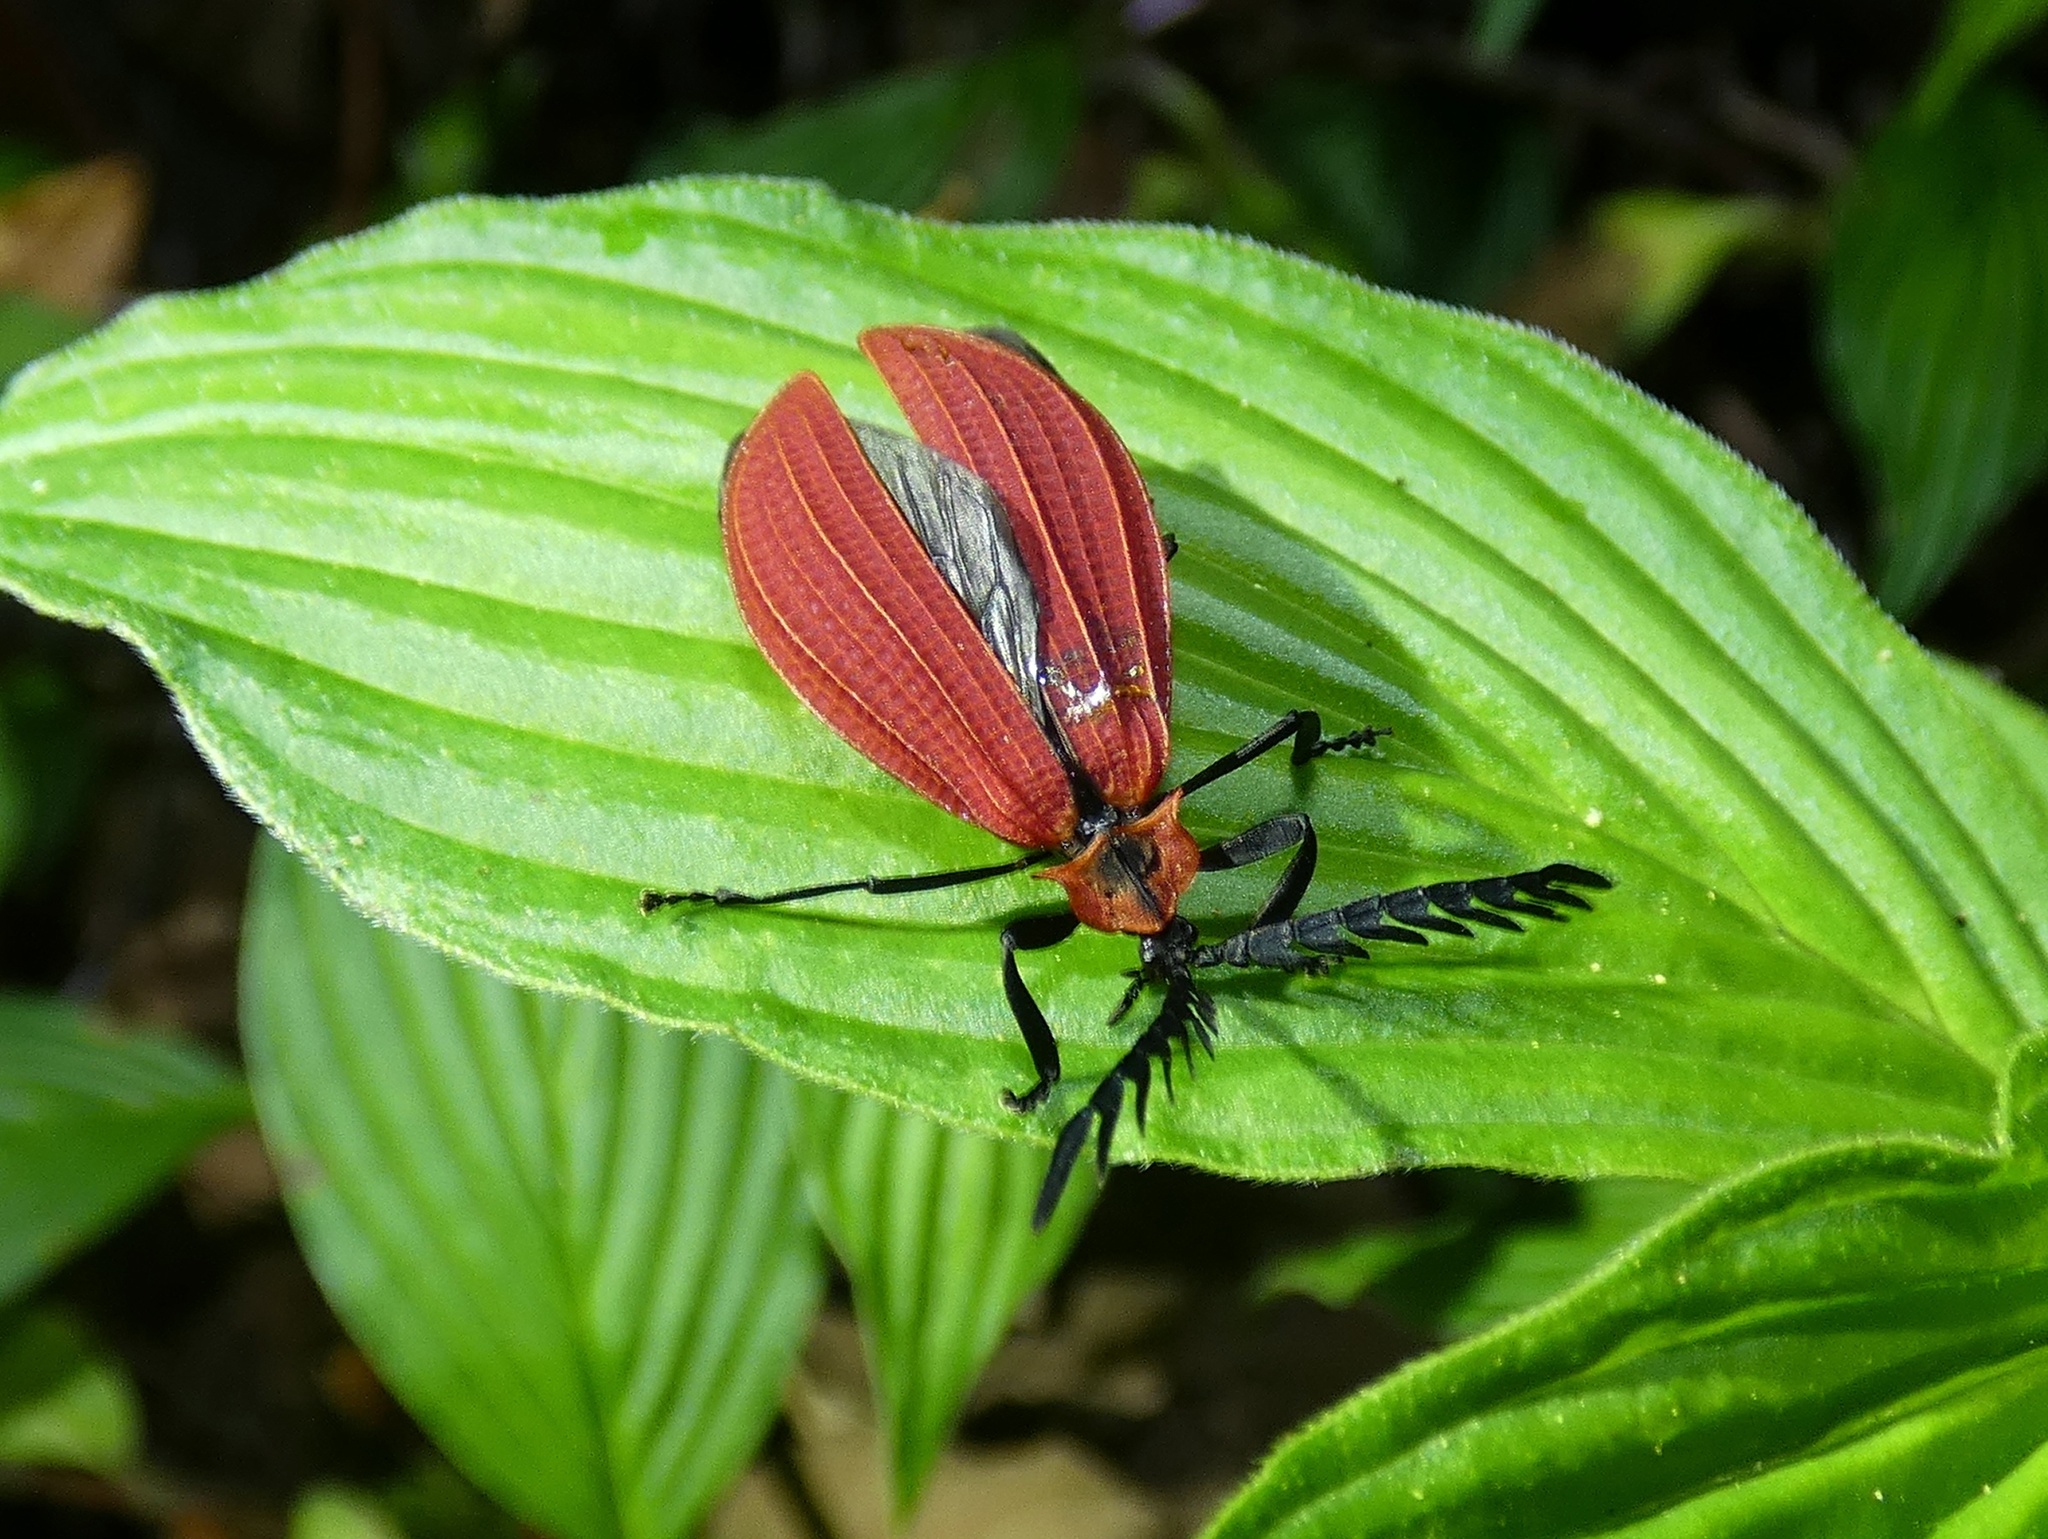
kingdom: Animalia
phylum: Arthropoda
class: Insecta
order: Coleoptera
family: Lycidae
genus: Caenia
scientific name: Caenia
